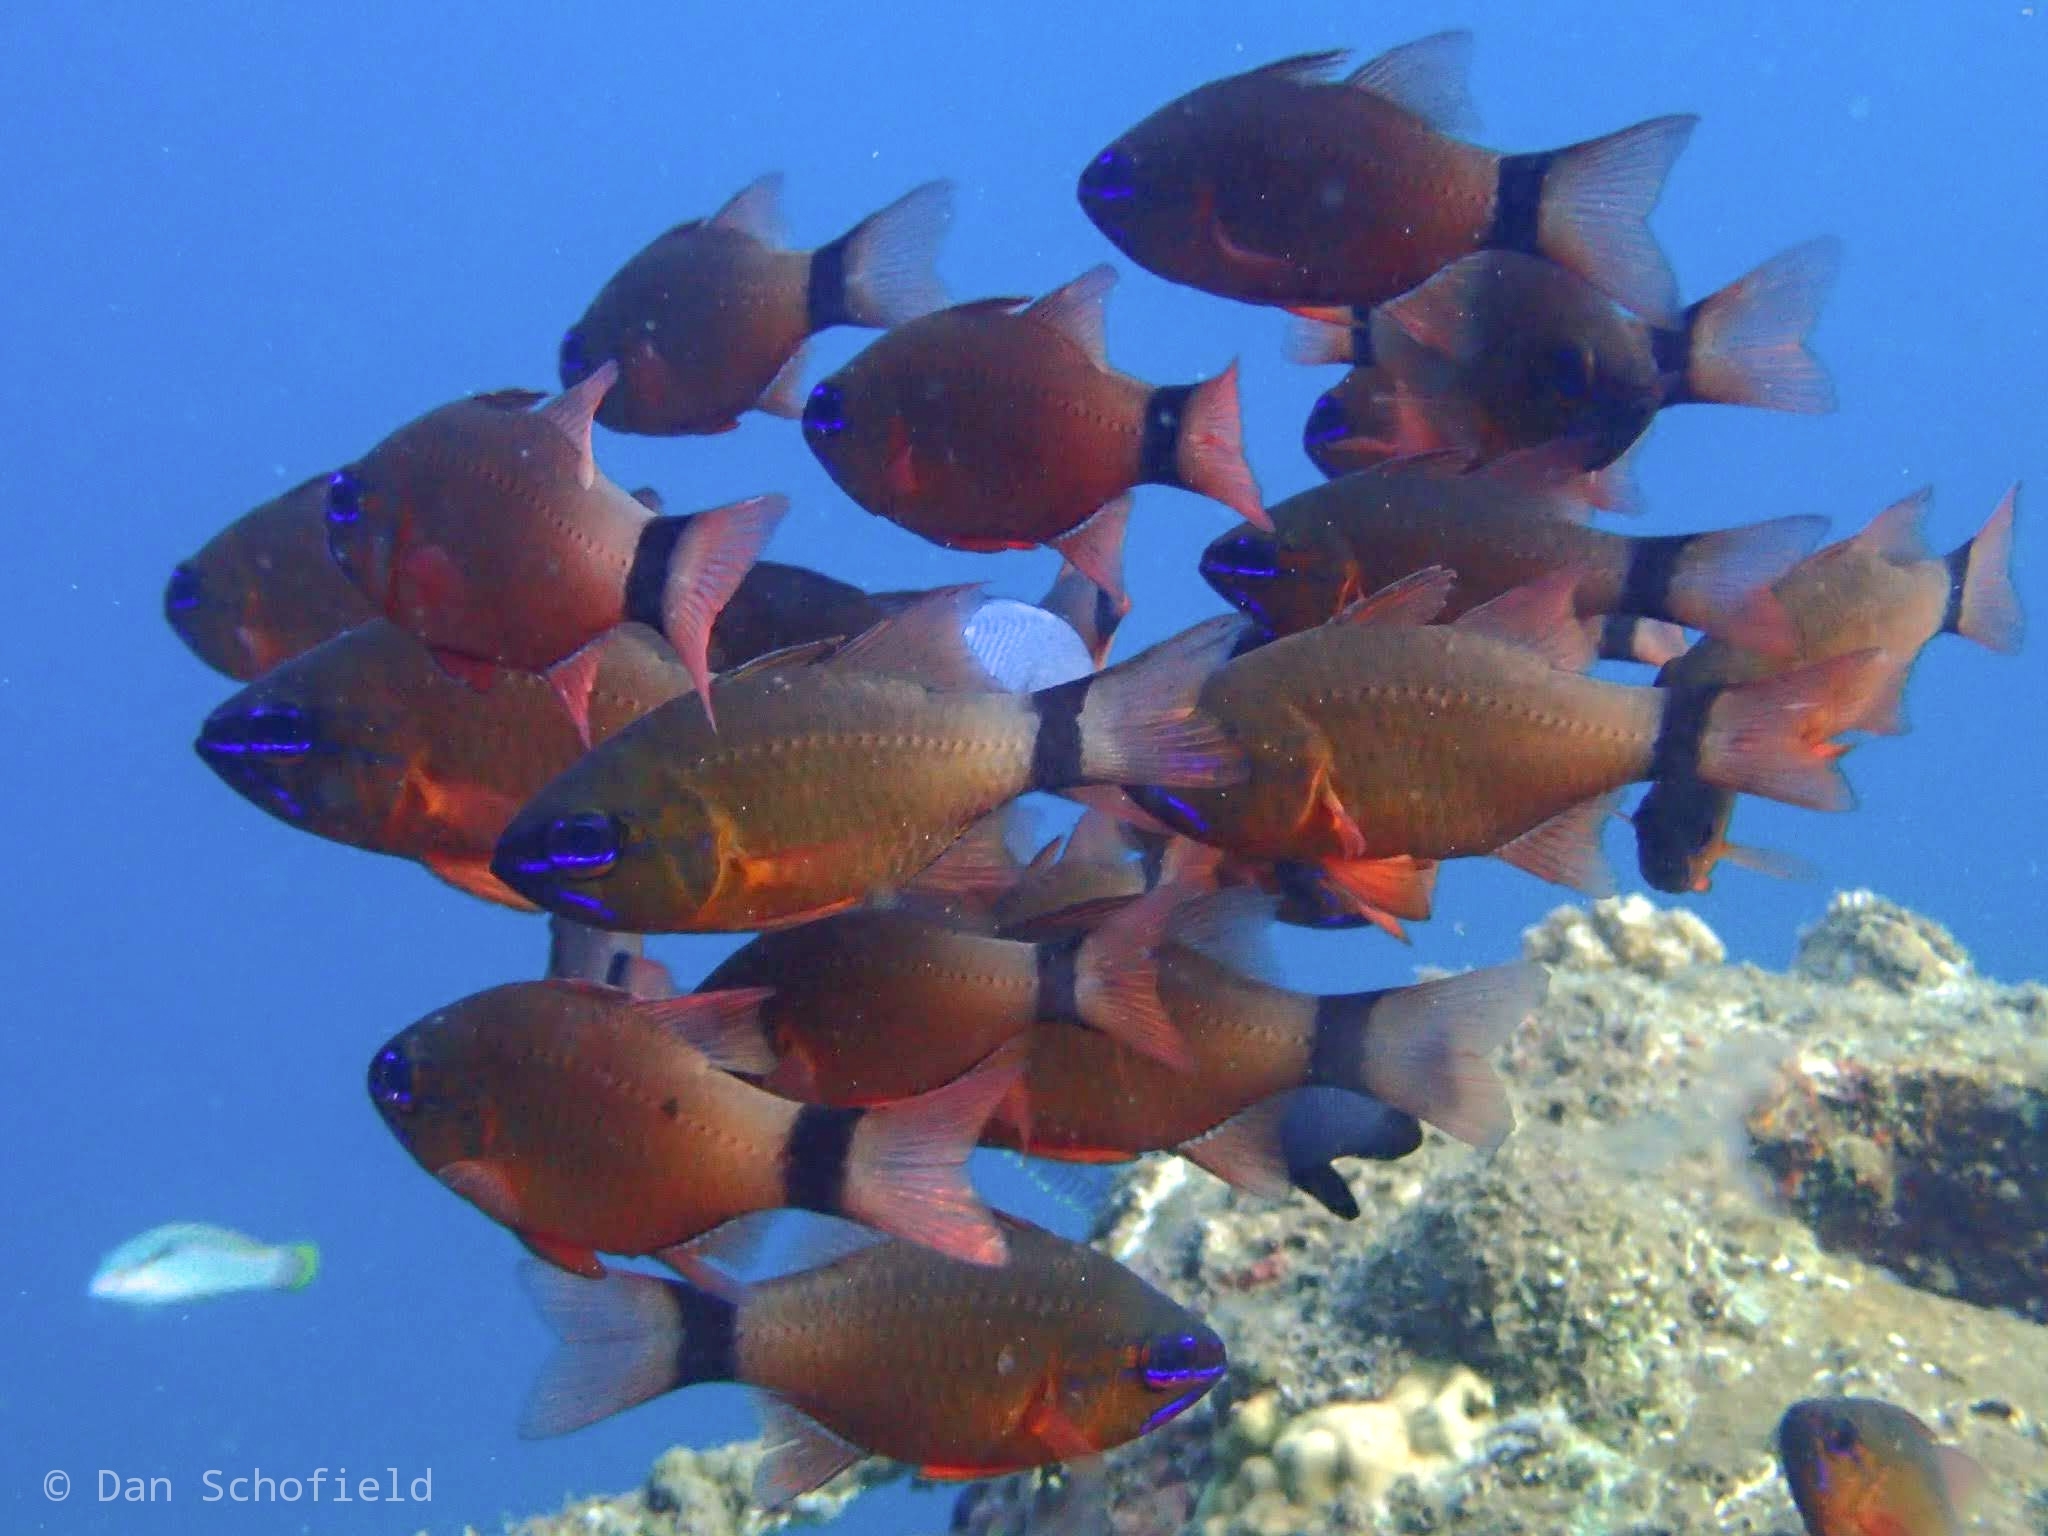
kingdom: Animalia
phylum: Chordata
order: Perciformes
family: Apogonidae
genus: Ostorhinchus
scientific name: Ostorhinchus aureus
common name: Ring-tailed cardinalfish
